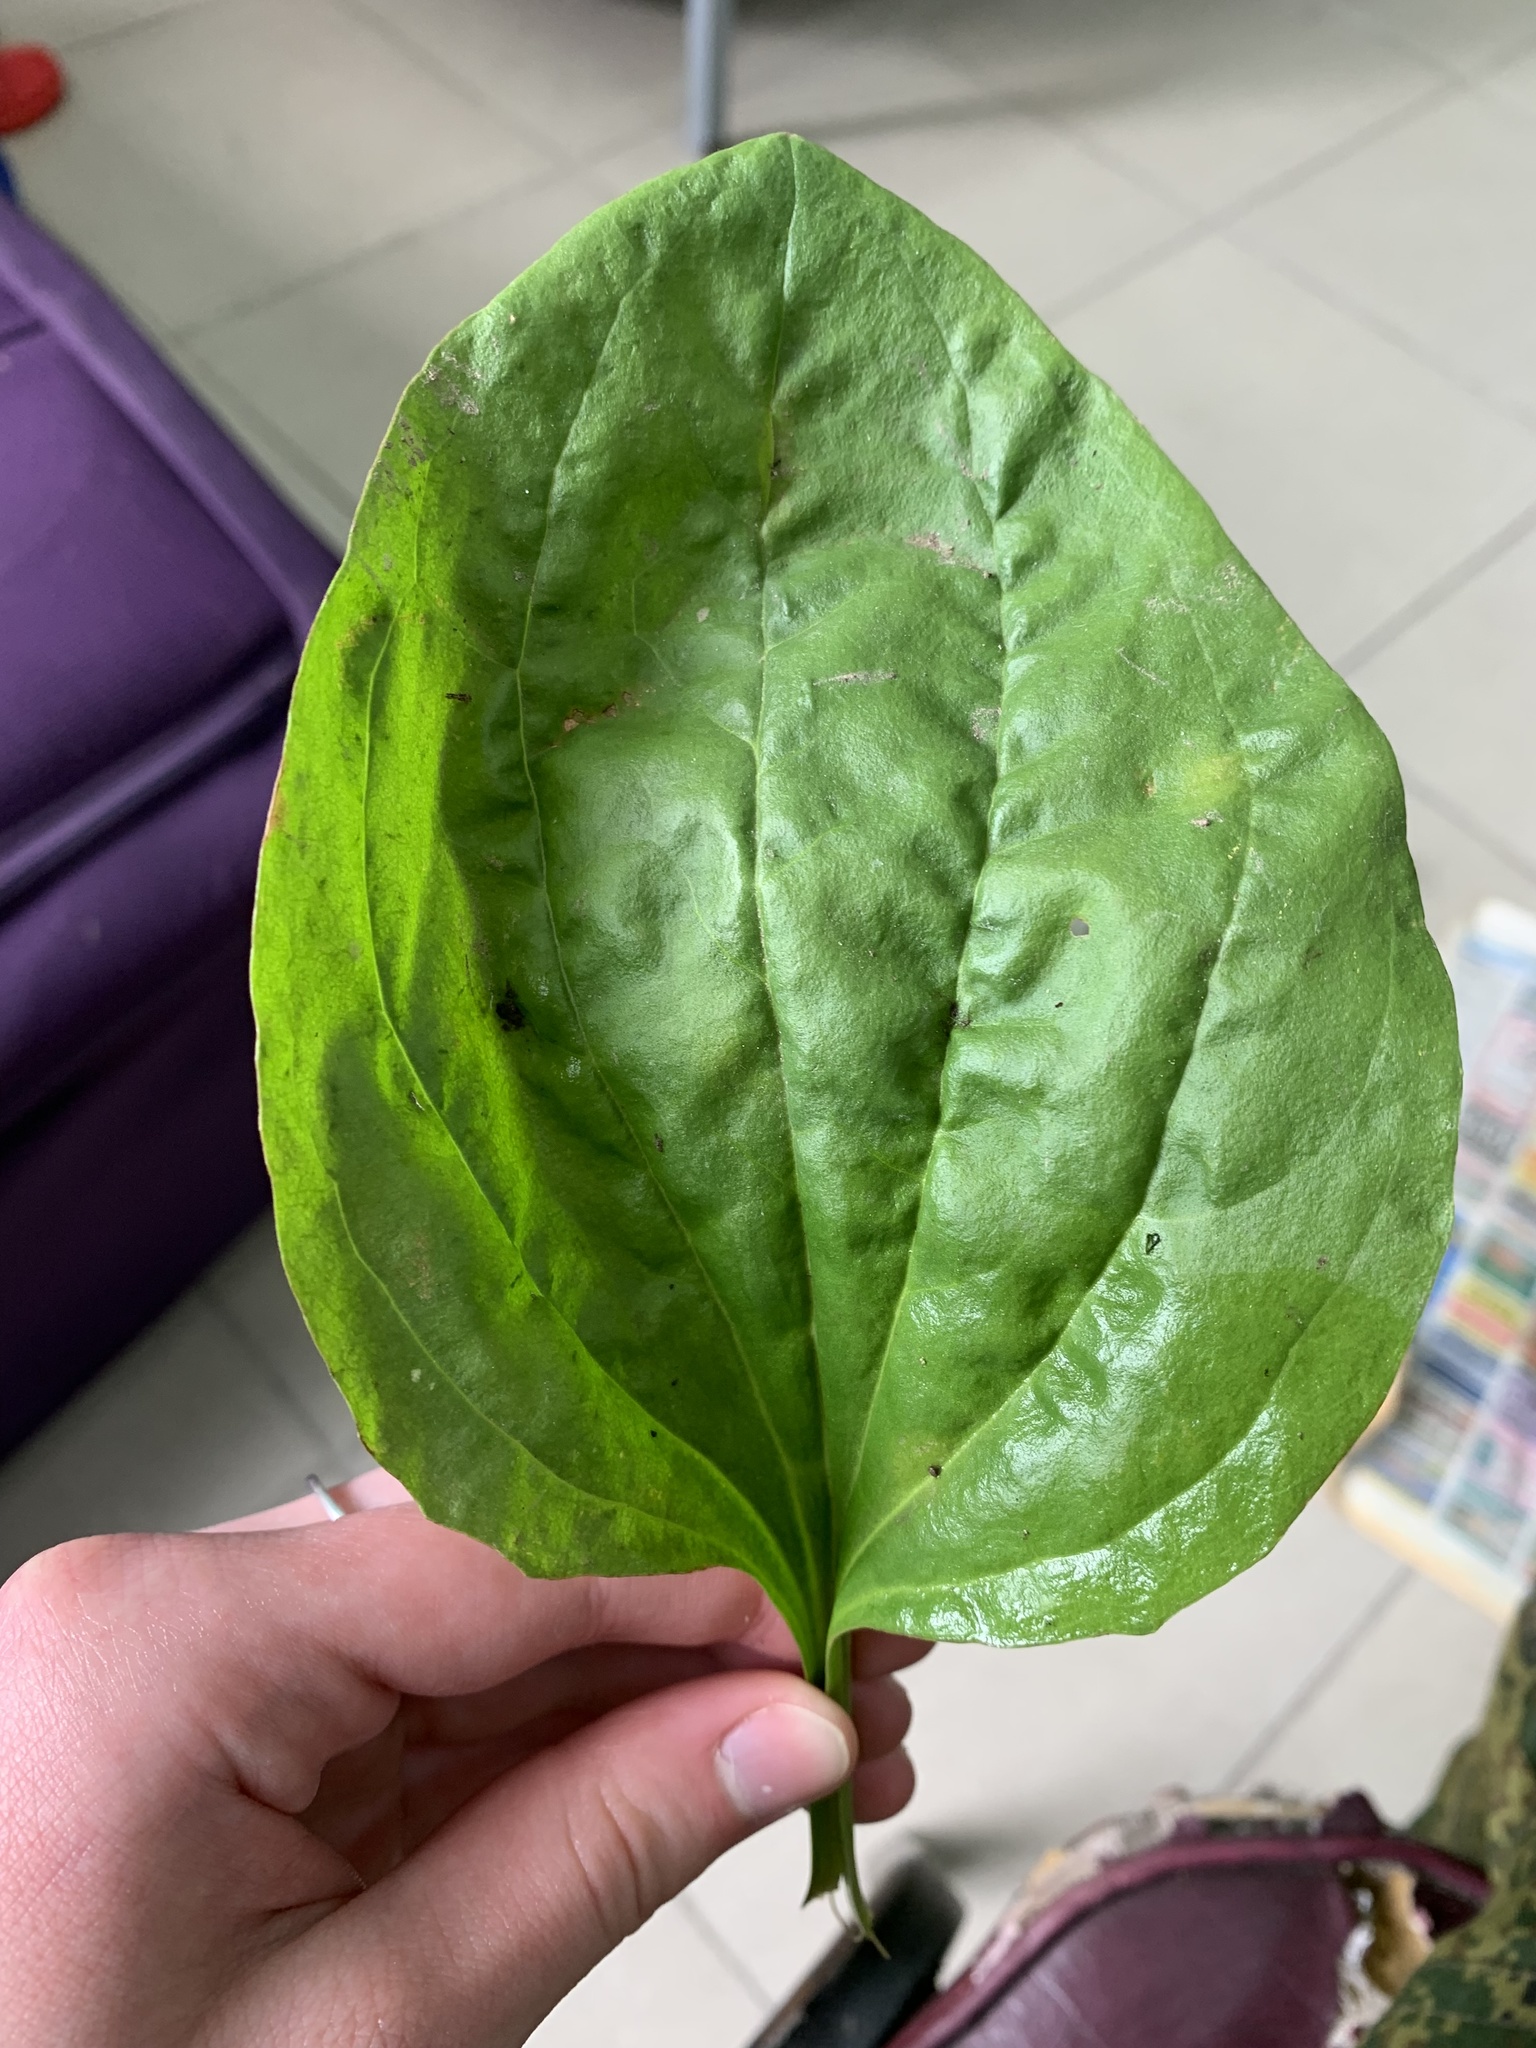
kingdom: Plantae
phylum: Tracheophyta
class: Magnoliopsida
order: Lamiales
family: Plantaginaceae
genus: Plantago
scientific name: Plantago major
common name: Common plantain
